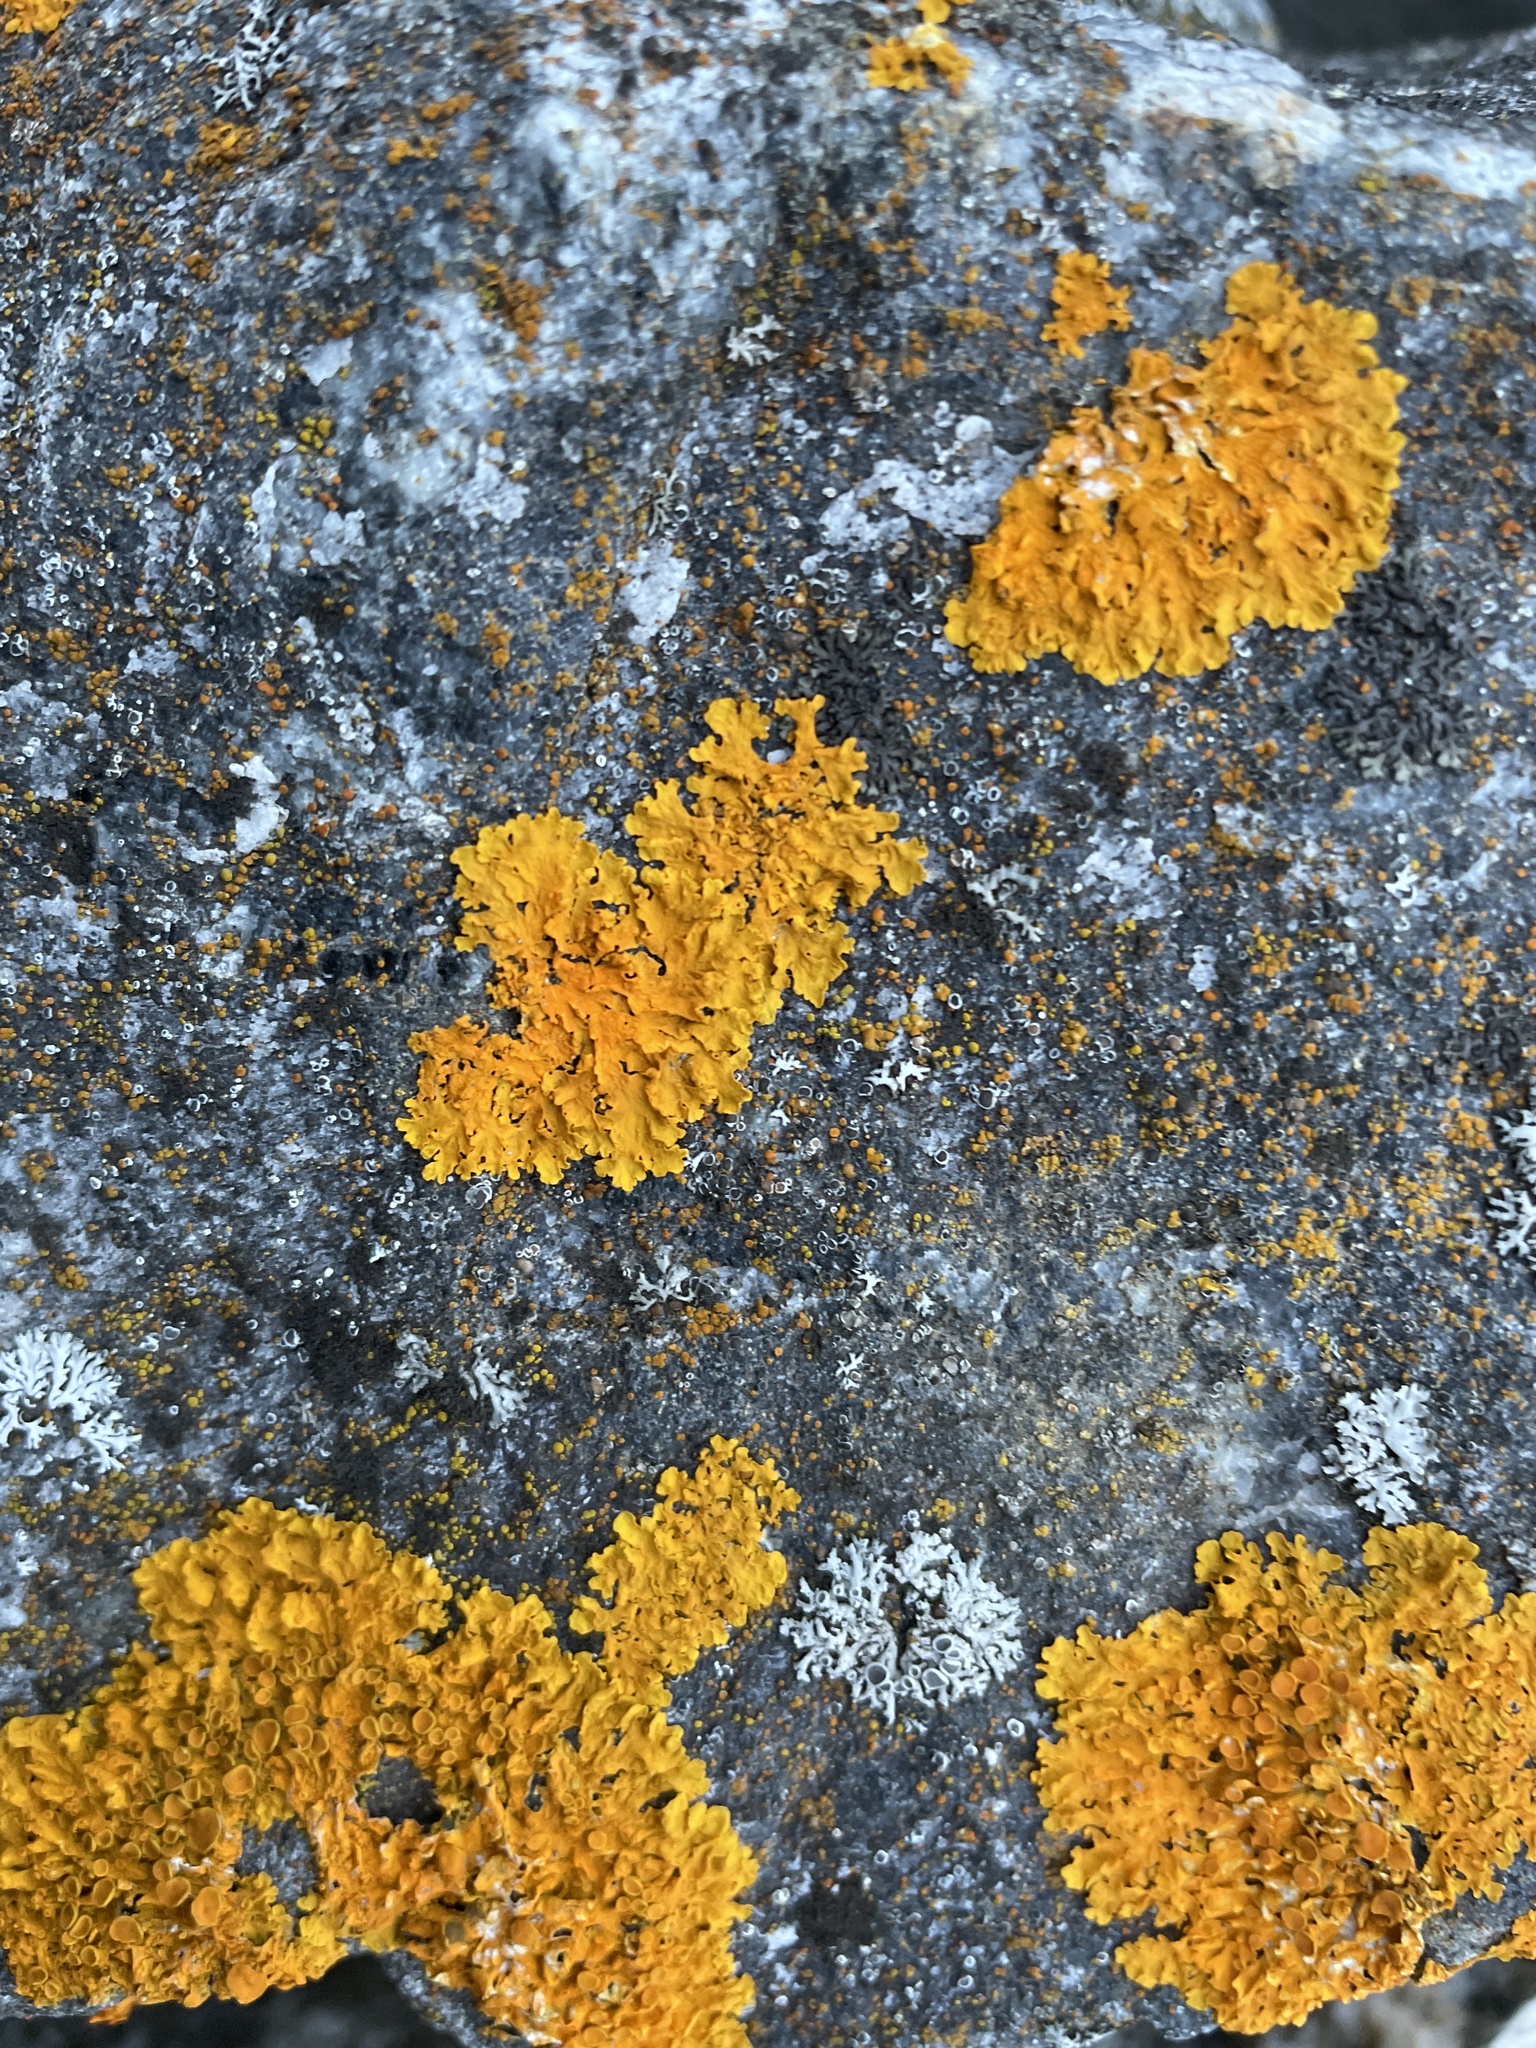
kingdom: Fungi
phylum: Ascomycota
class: Lecanoromycetes
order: Teloschistales
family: Teloschistaceae
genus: Xanthoria
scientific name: Xanthoria parietina
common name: Common orange lichen
